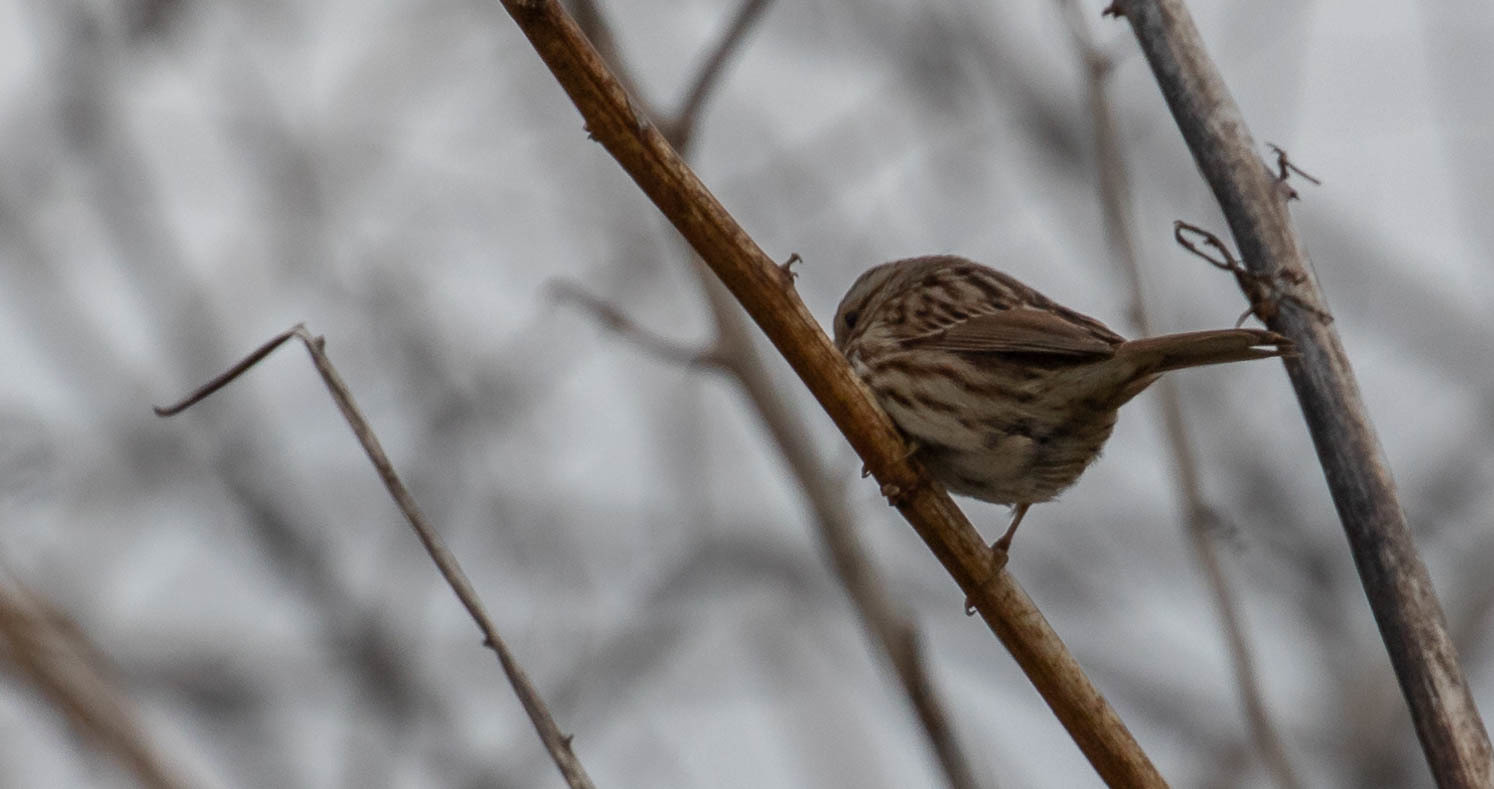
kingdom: Animalia
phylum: Chordata
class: Aves
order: Passeriformes
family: Passerellidae
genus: Melospiza
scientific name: Melospiza melodia
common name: Song sparrow
